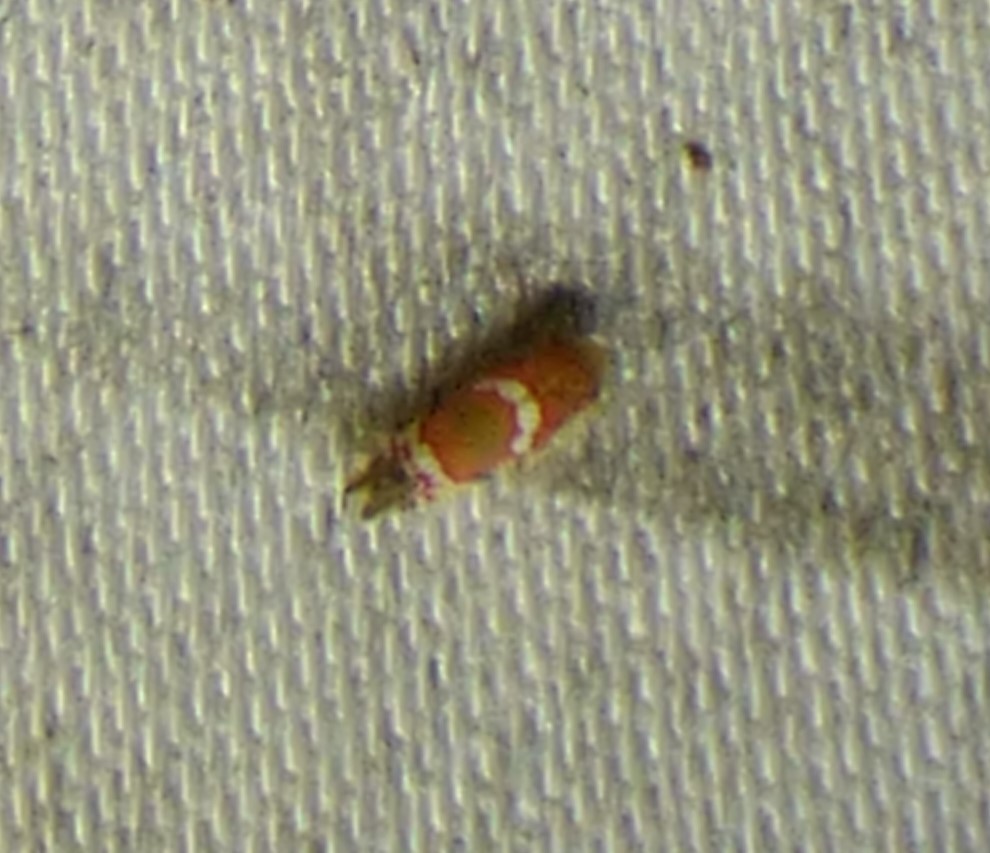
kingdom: Animalia
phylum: Arthropoda
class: Insecta
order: Hemiptera
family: Cicadellidae
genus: Erythroneura
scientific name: Erythroneura vitis
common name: Grapevine leafhopper
